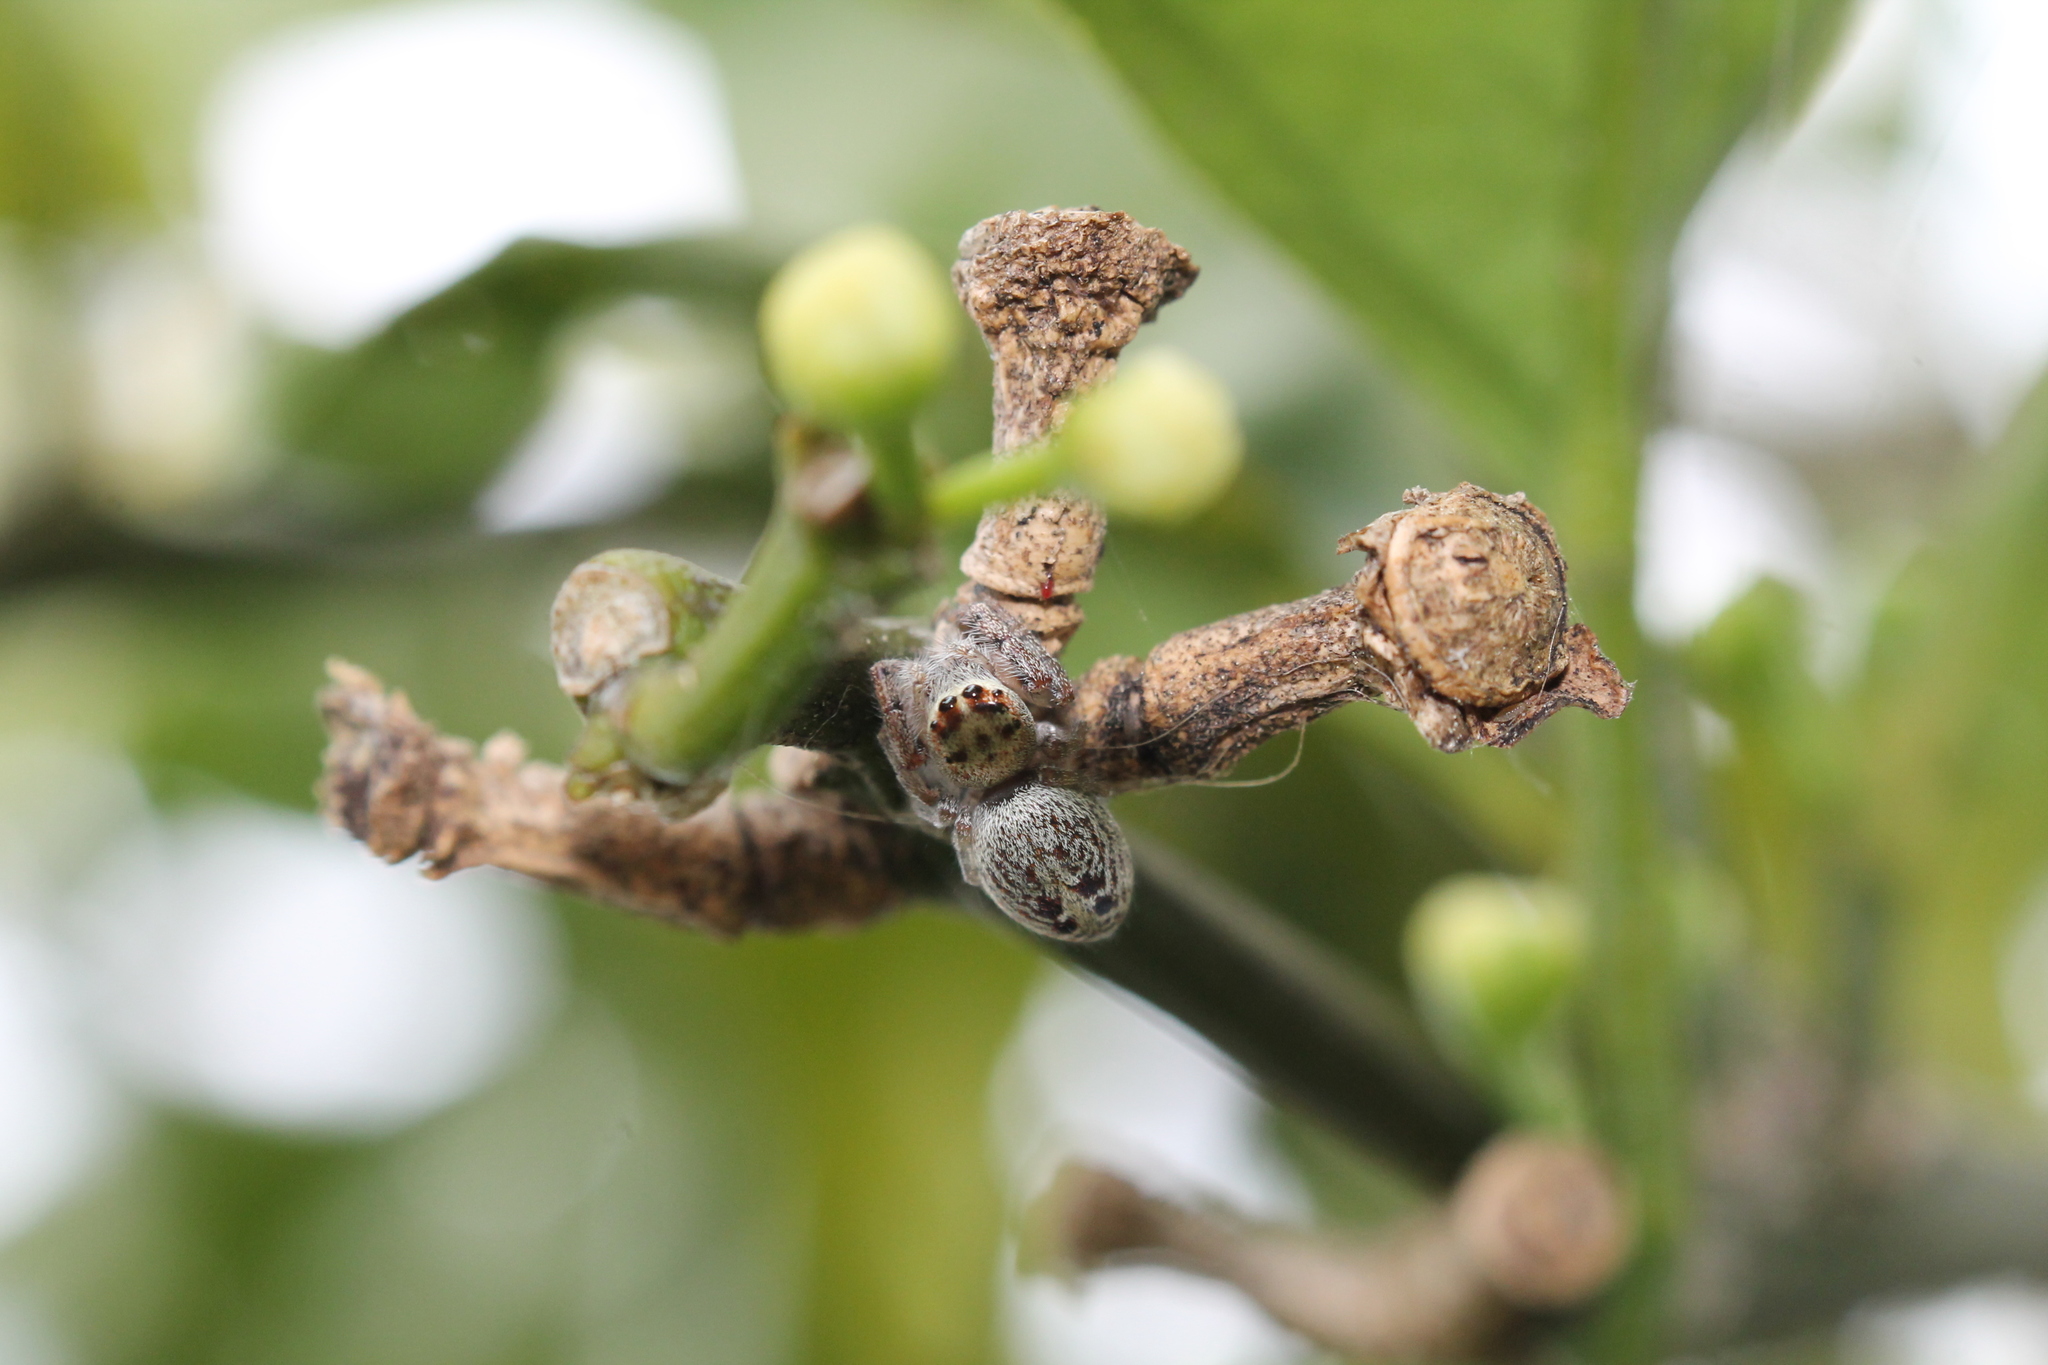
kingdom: Animalia
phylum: Arthropoda
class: Arachnida
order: Araneae
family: Salticidae
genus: Opisthoncus
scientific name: Opisthoncus polyphemus
